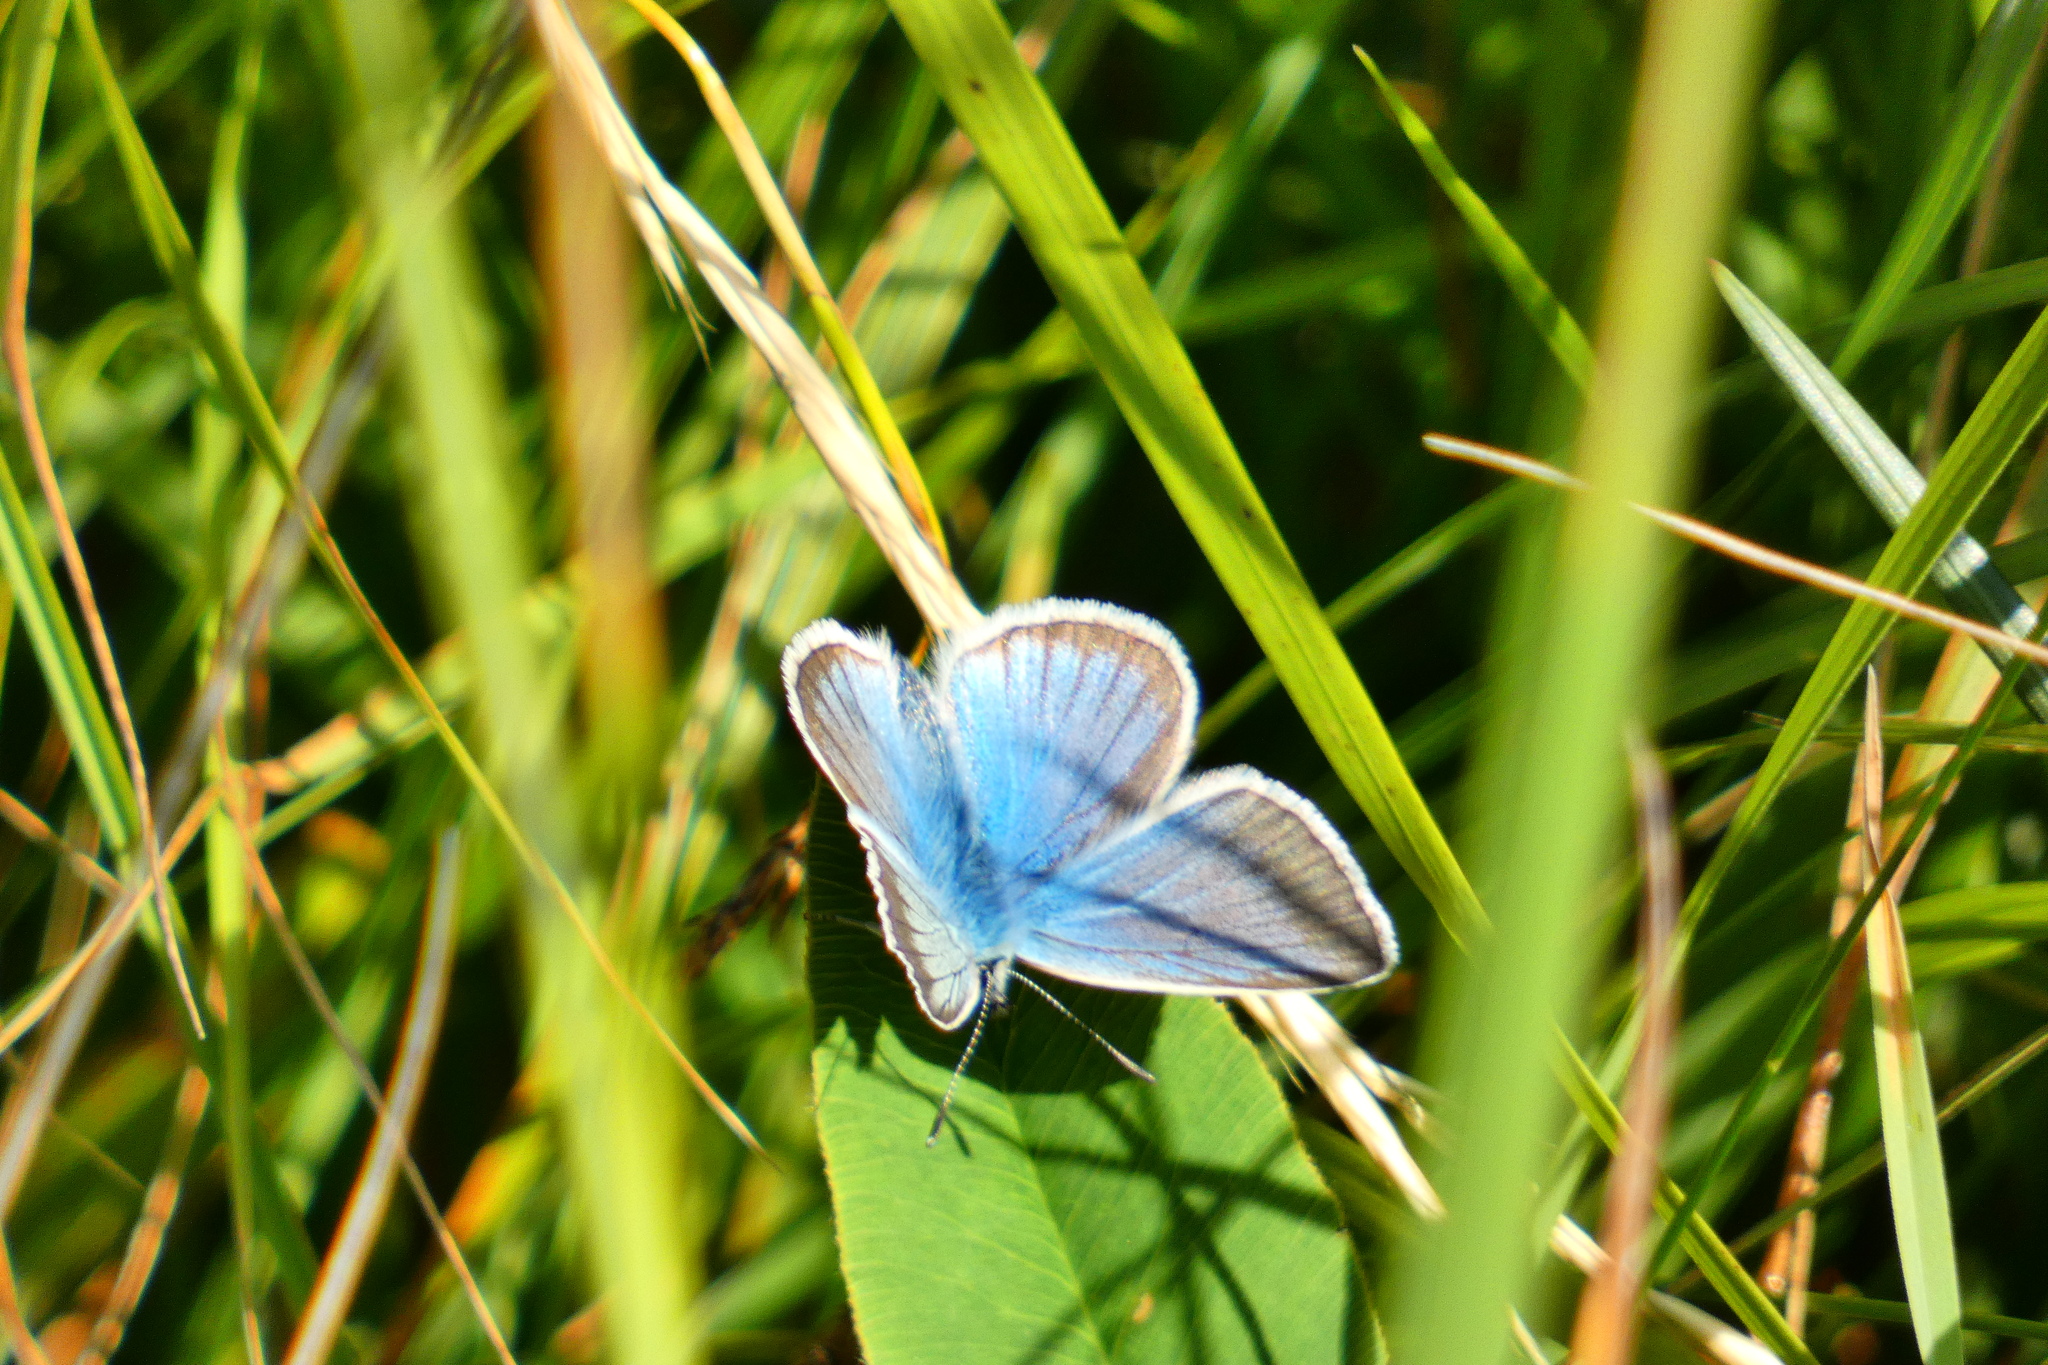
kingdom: Animalia
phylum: Arthropoda
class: Insecta
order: Lepidoptera
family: Lycaenidae
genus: Agrodiaetus
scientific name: Agrodiaetus damon
